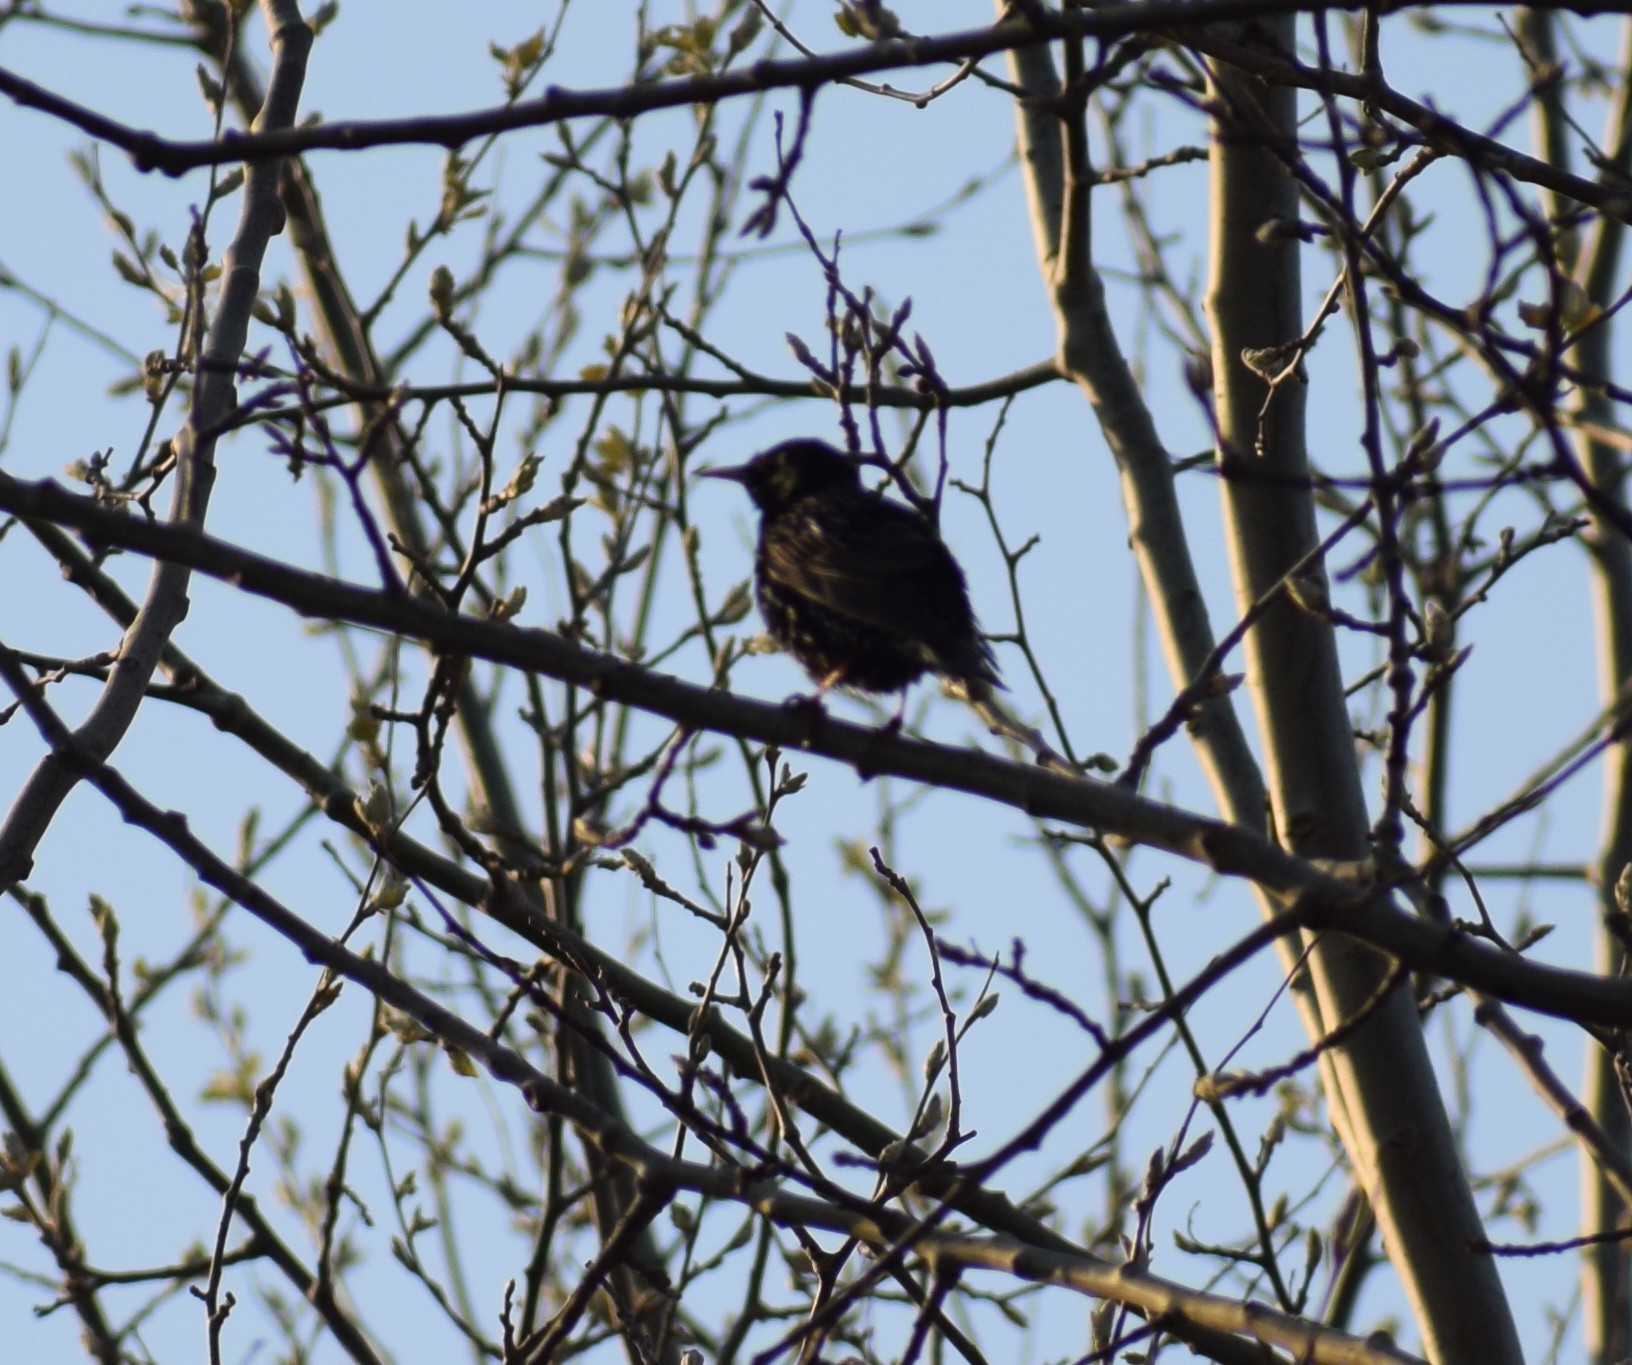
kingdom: Animalia
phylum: Chordata
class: Aves
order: Passeriformes
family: Sturnidae
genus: Sturnus
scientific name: Sturnus vulgaris
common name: Common starling
